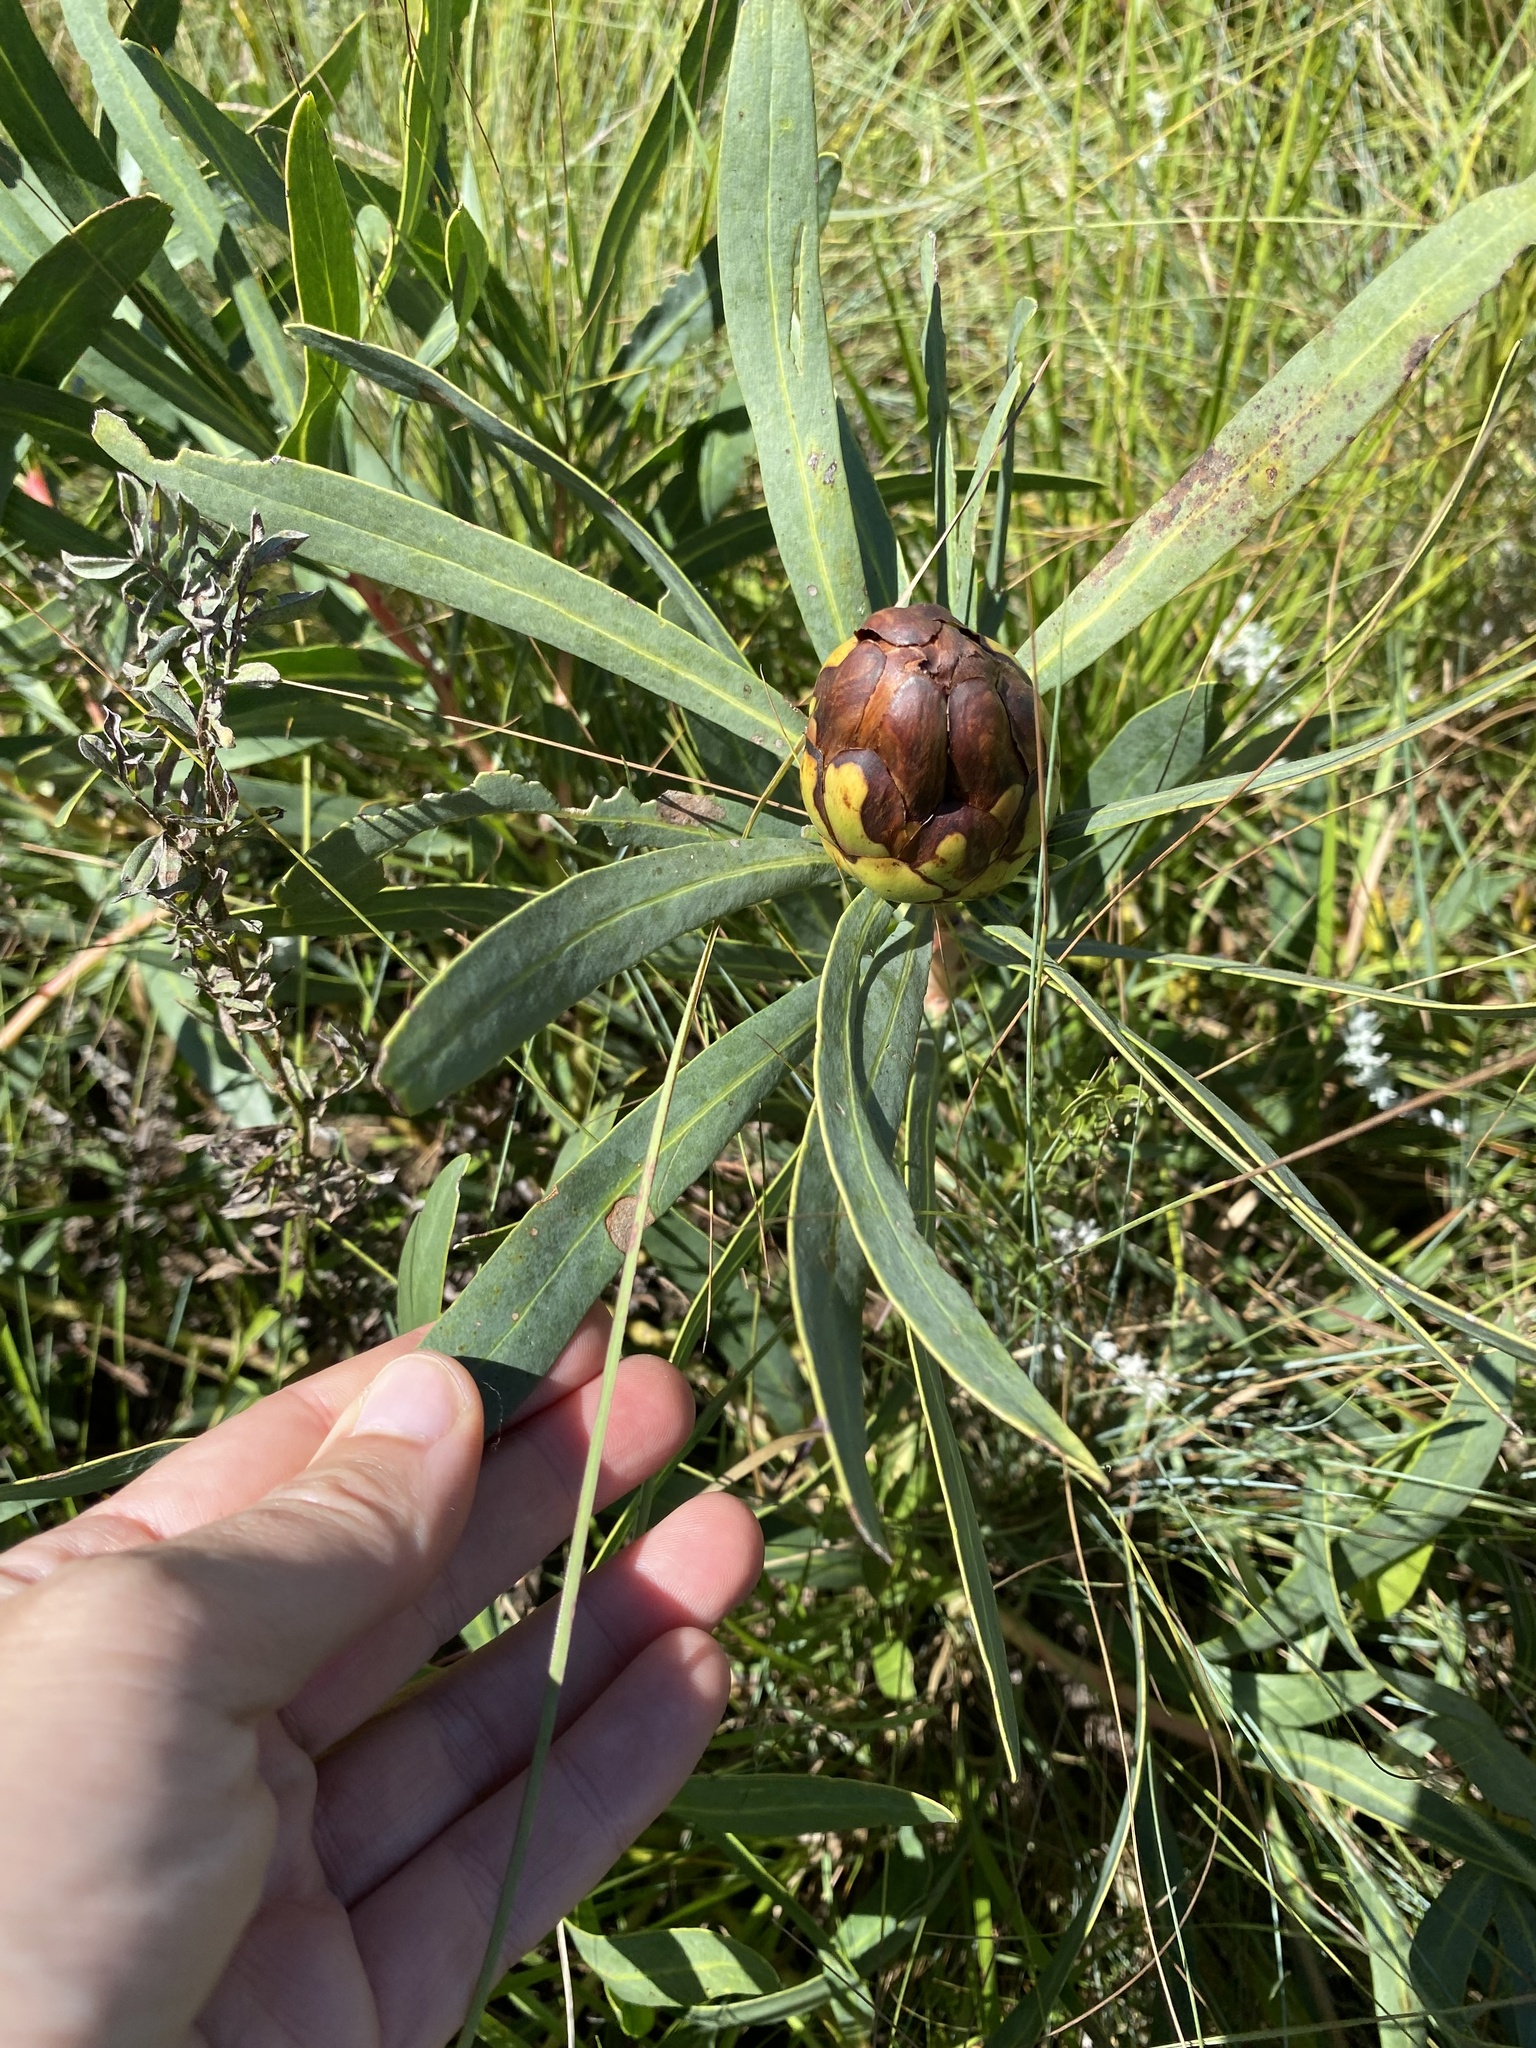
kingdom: Plantae
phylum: Tracheophyta
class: Magnoliopsida
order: Proteales
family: Proteaceae
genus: Protea
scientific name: Protea caffra
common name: Common sugarbush
